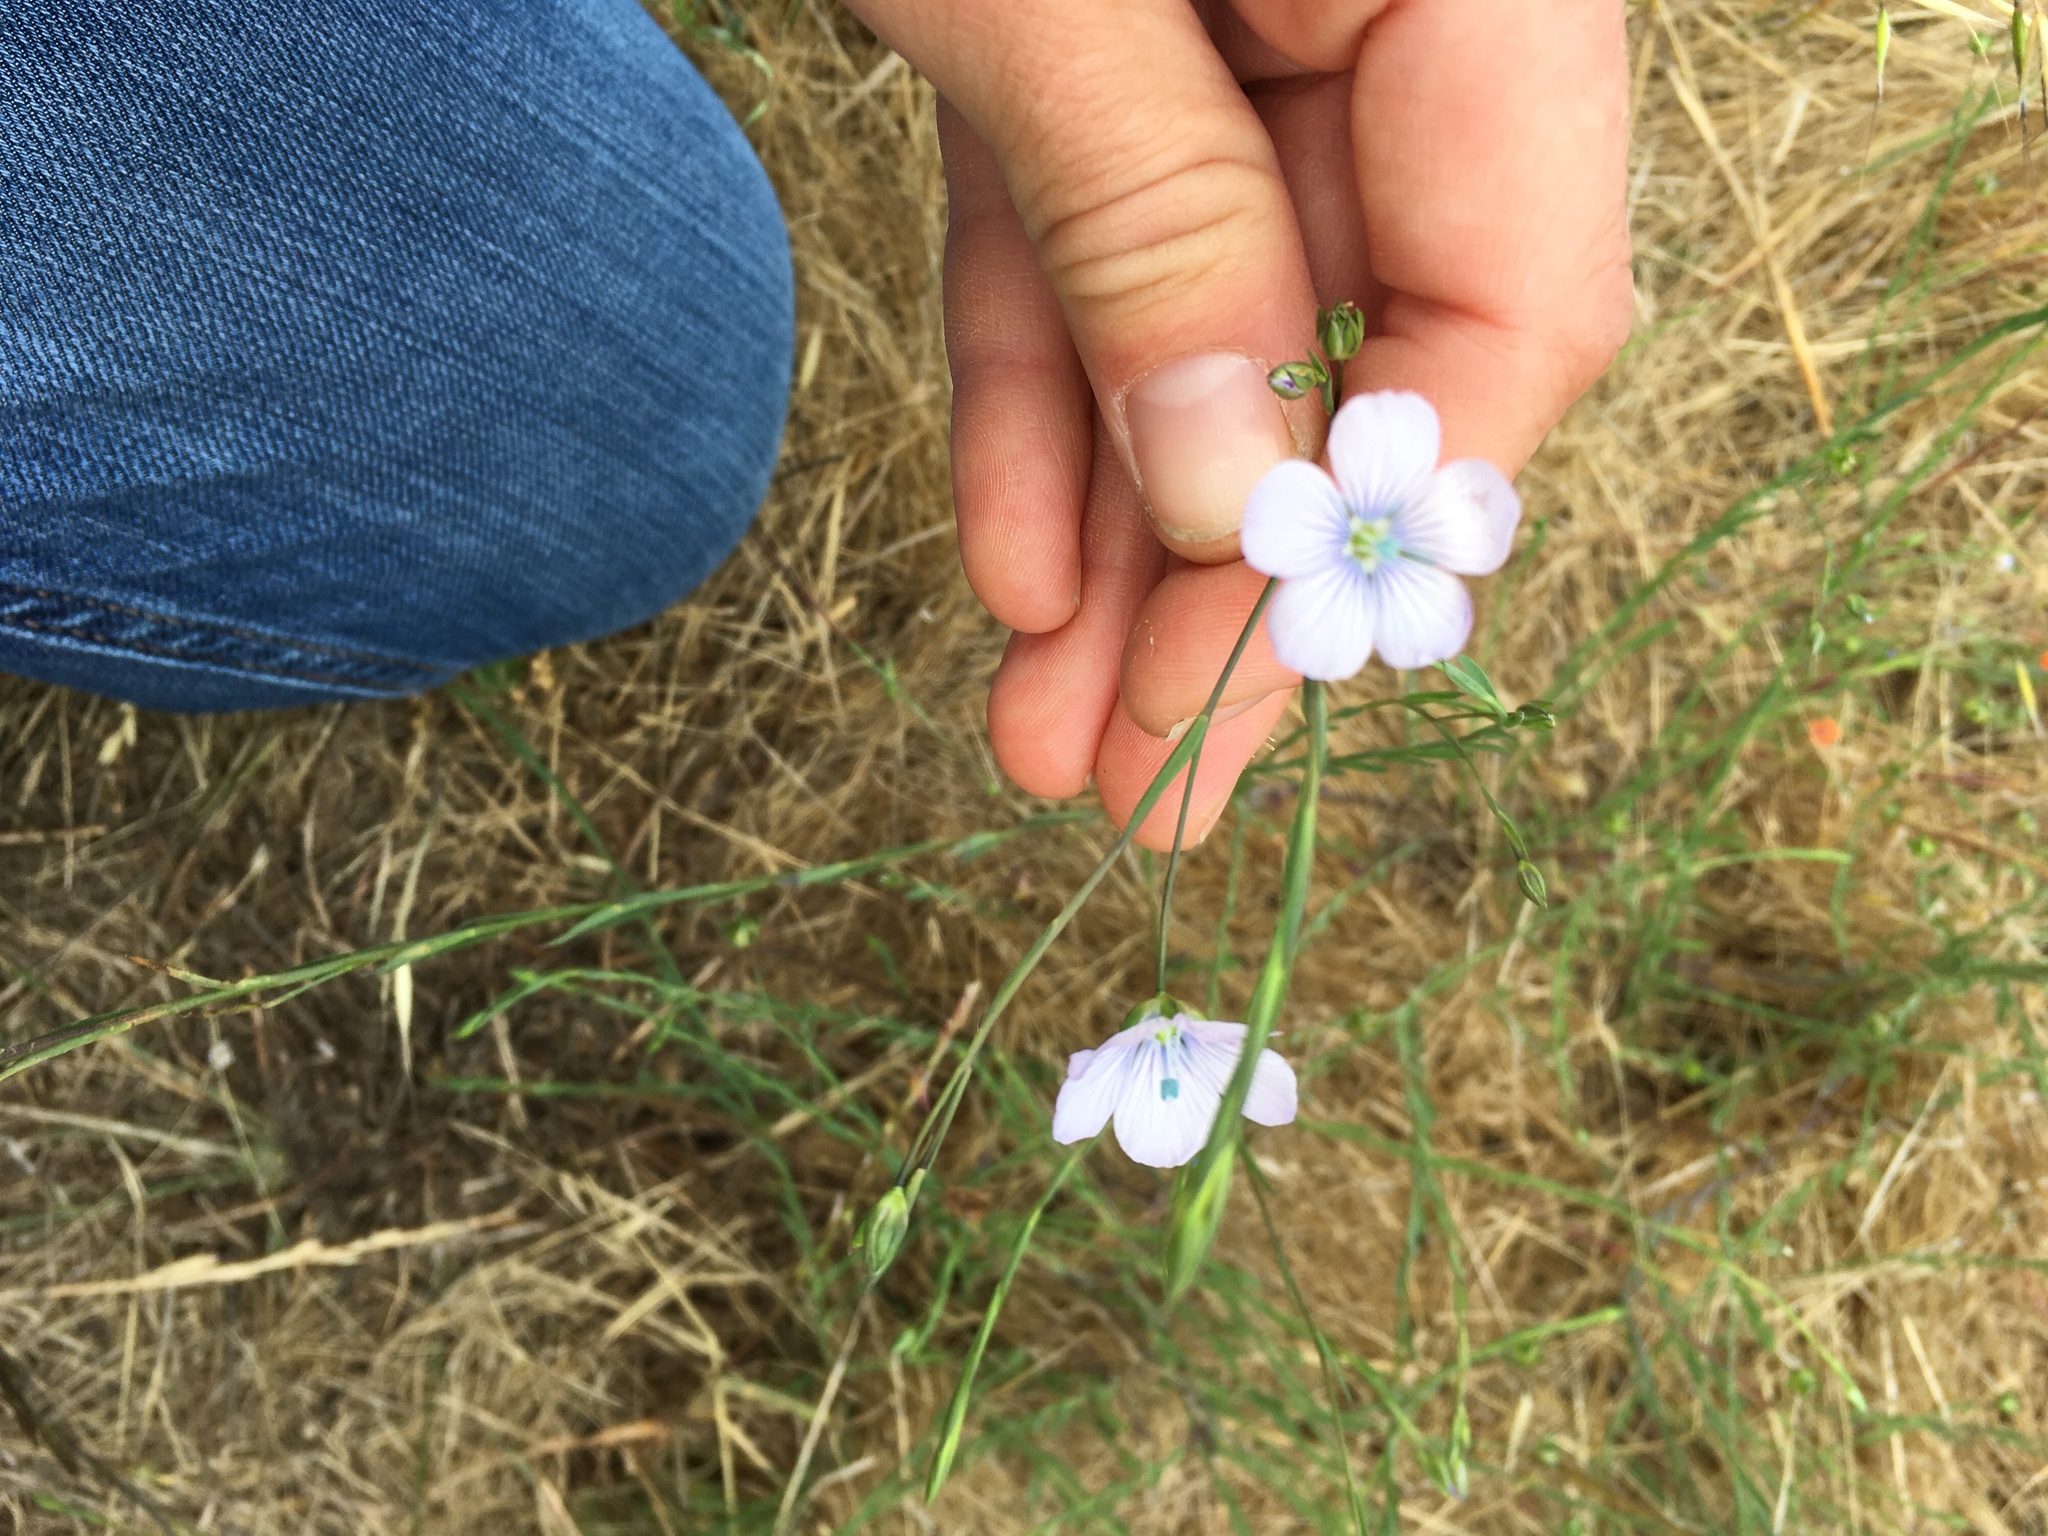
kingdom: Plantae
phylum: Tracheophyta
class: Magnoliopsida
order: Malpighiales
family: Linaceae
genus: Linum
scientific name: Linum bienne
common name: Pale flax
